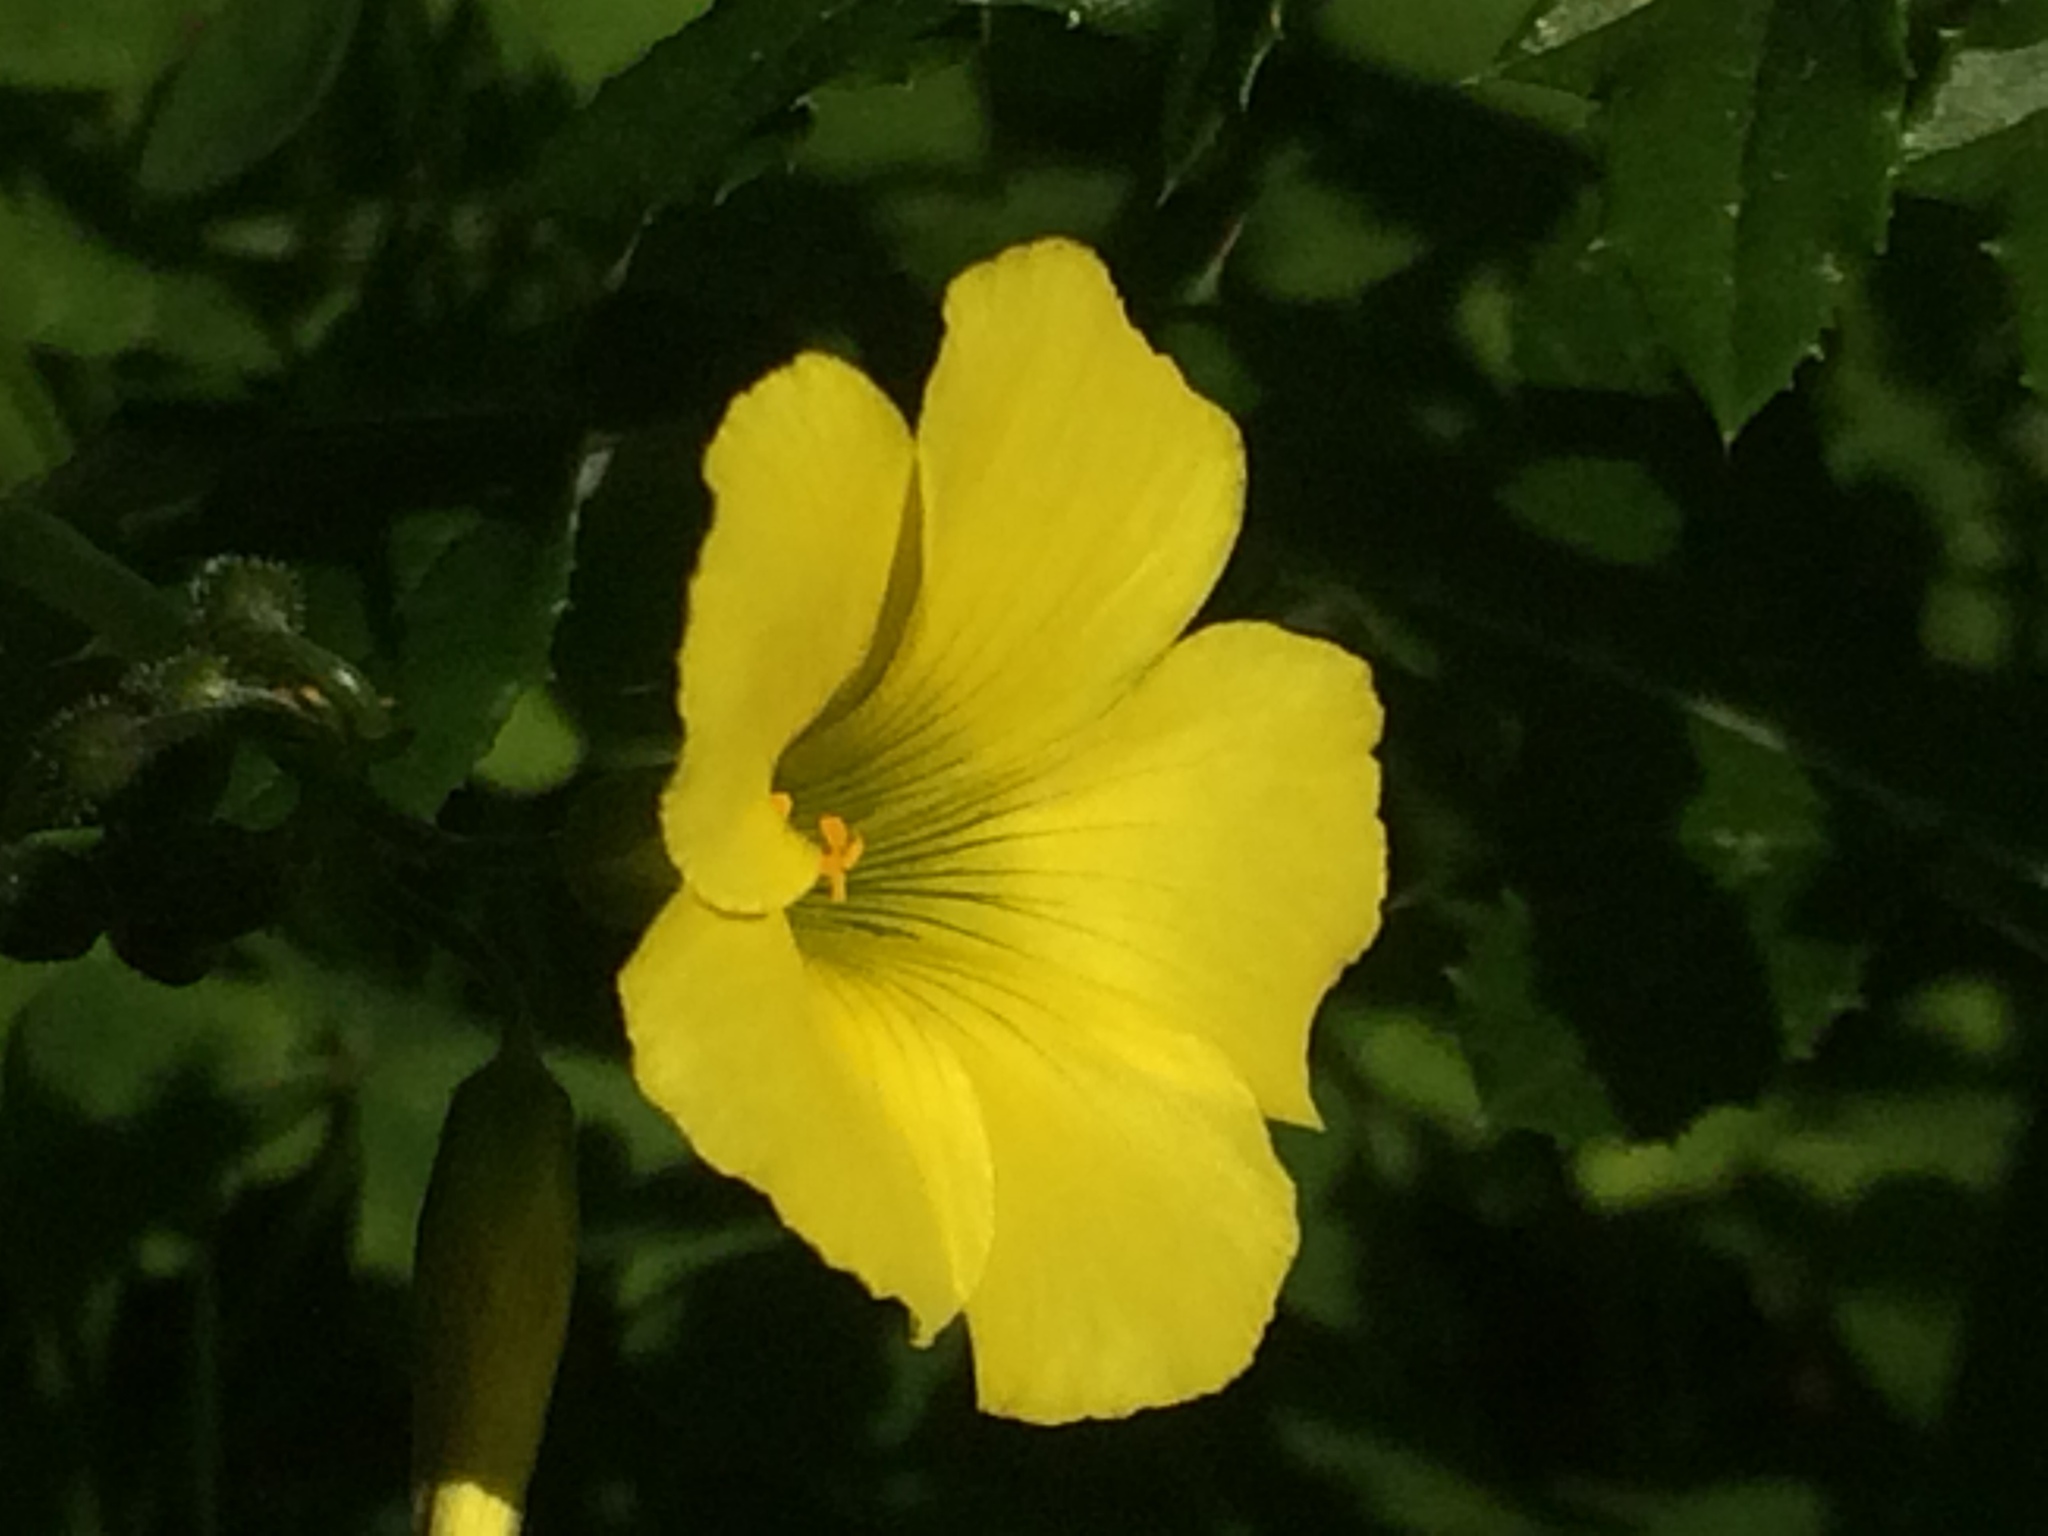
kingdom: Plantae
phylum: Tracheophyta
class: Magnoliopsida
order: Oxalidales
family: Oxalidaceae
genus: Oxalis
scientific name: Oxalis pes-caprae
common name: Bermuda-buttercup
